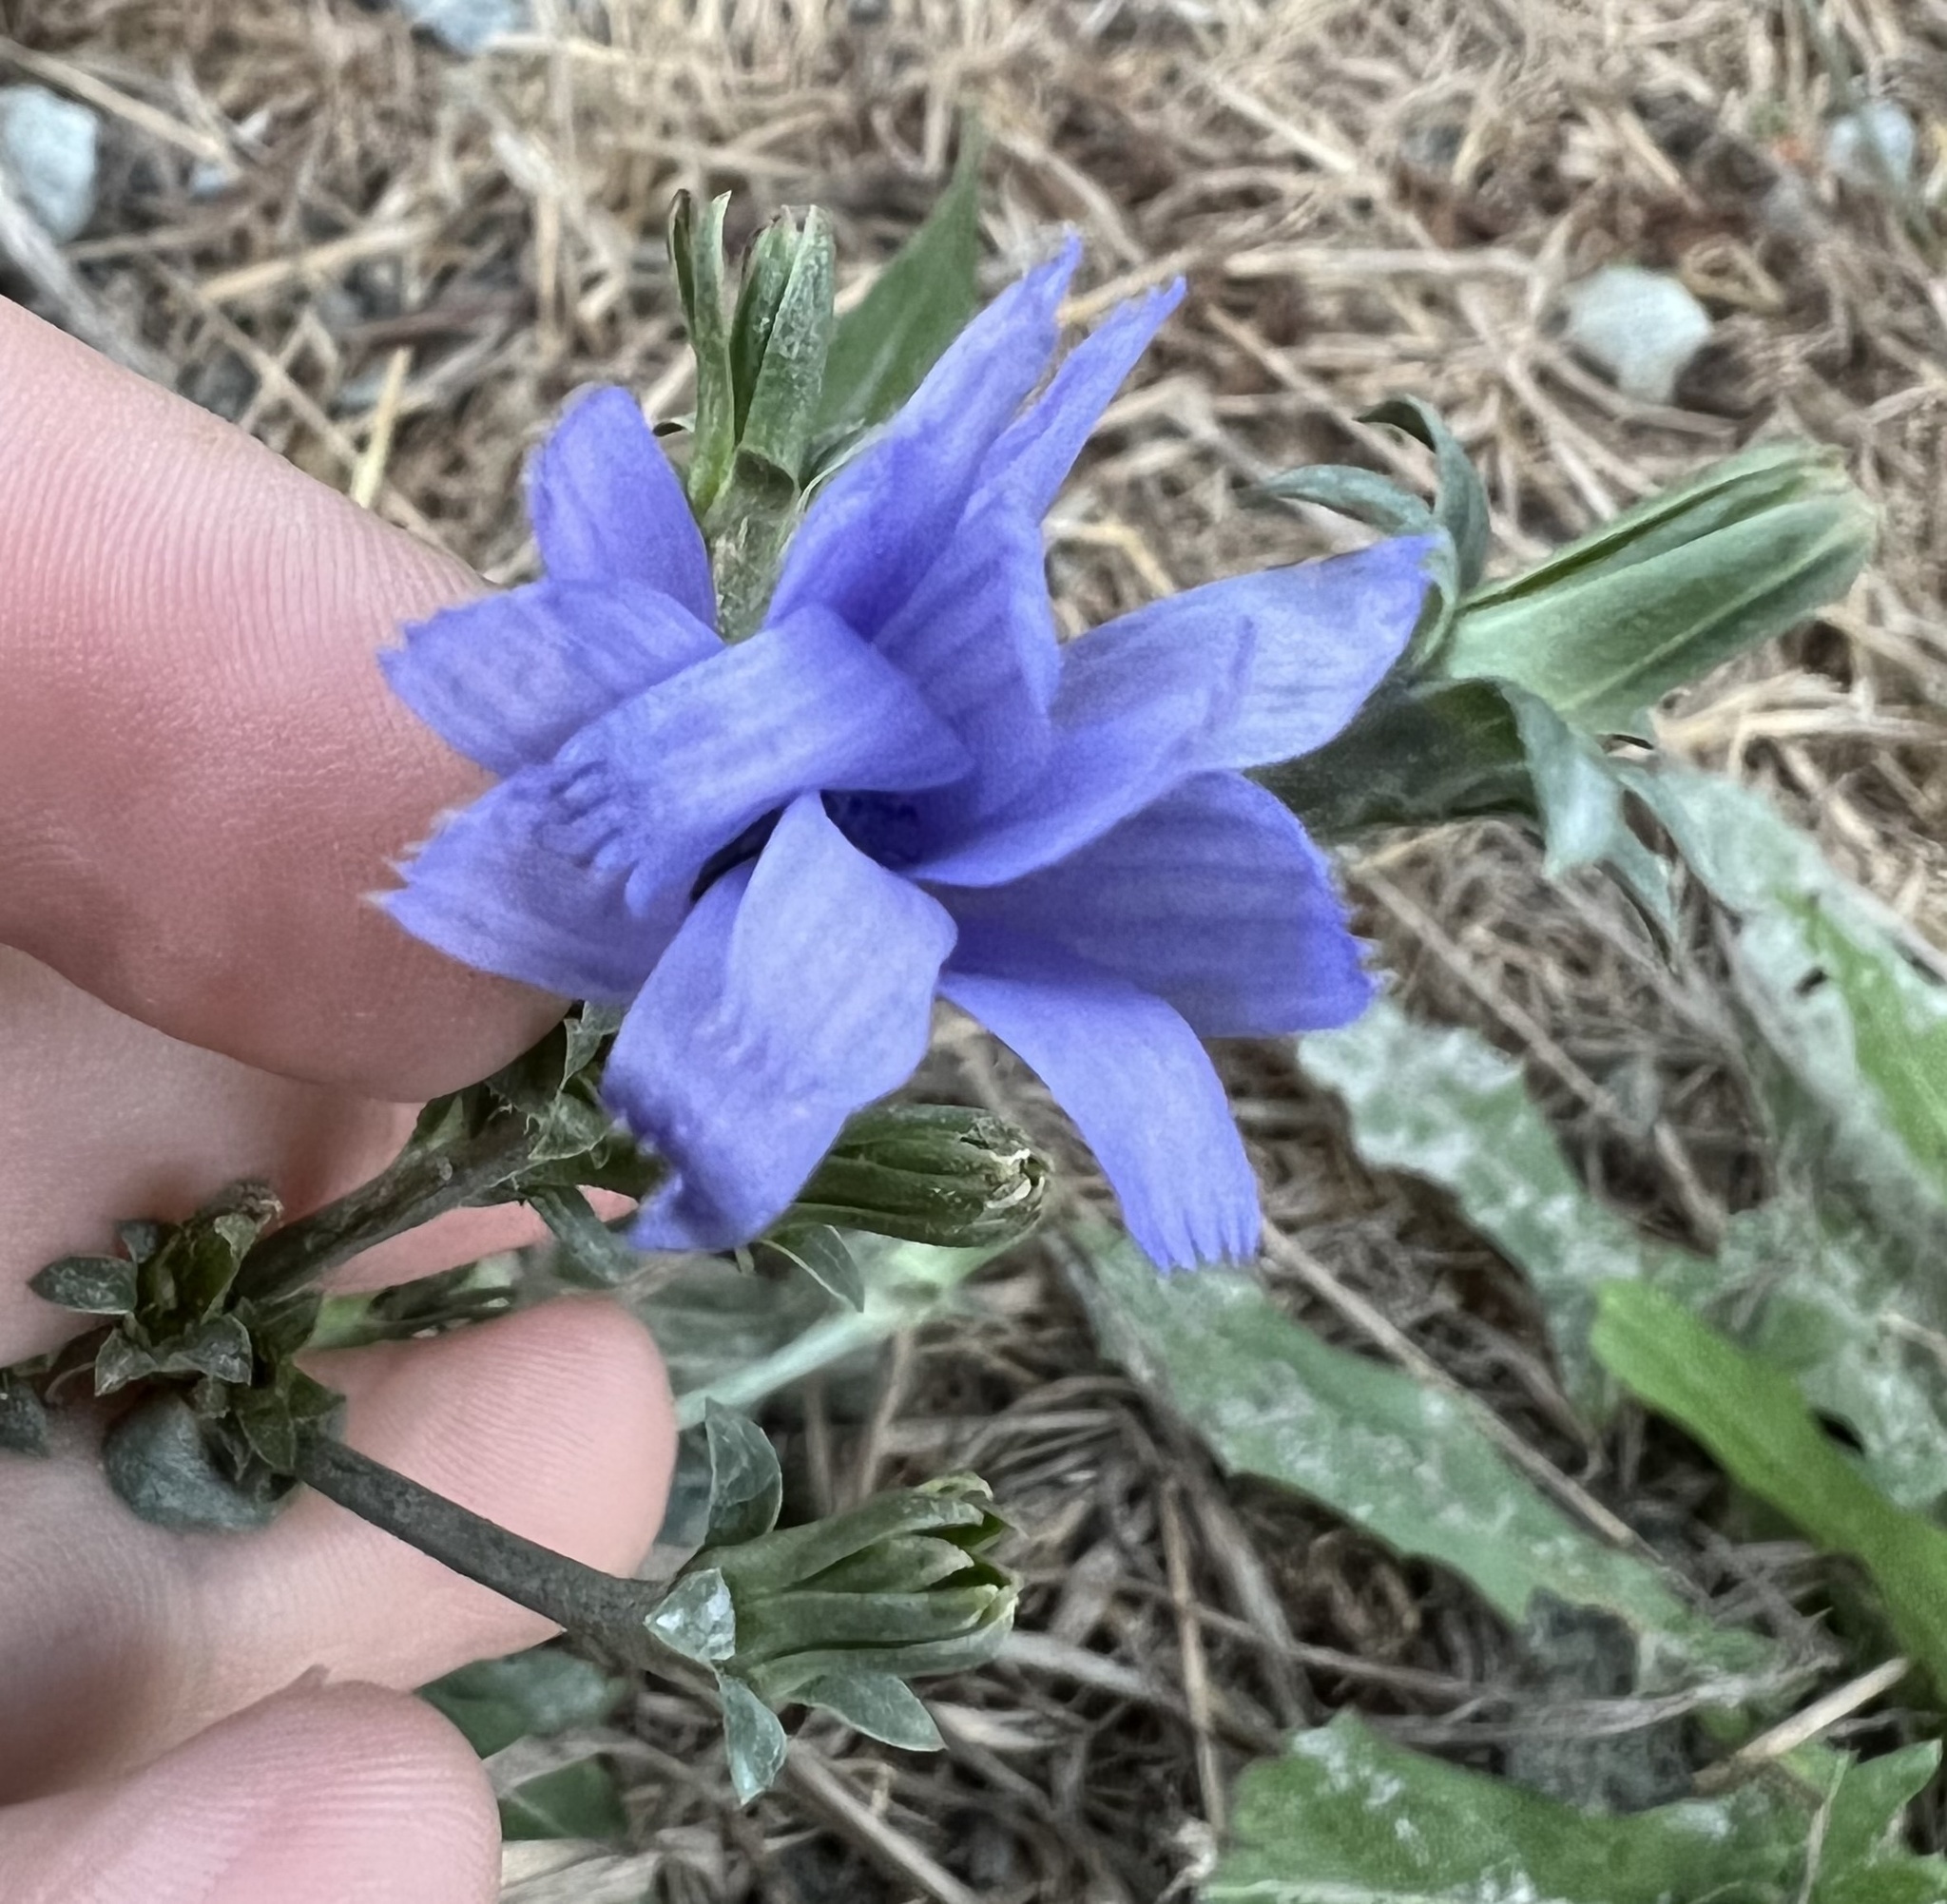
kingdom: Plantae
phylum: Tracheophyta
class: Magnoliopsida
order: Asterales
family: Asteraceae
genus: Cichorium
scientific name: Cichorium intybus
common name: Chicory
